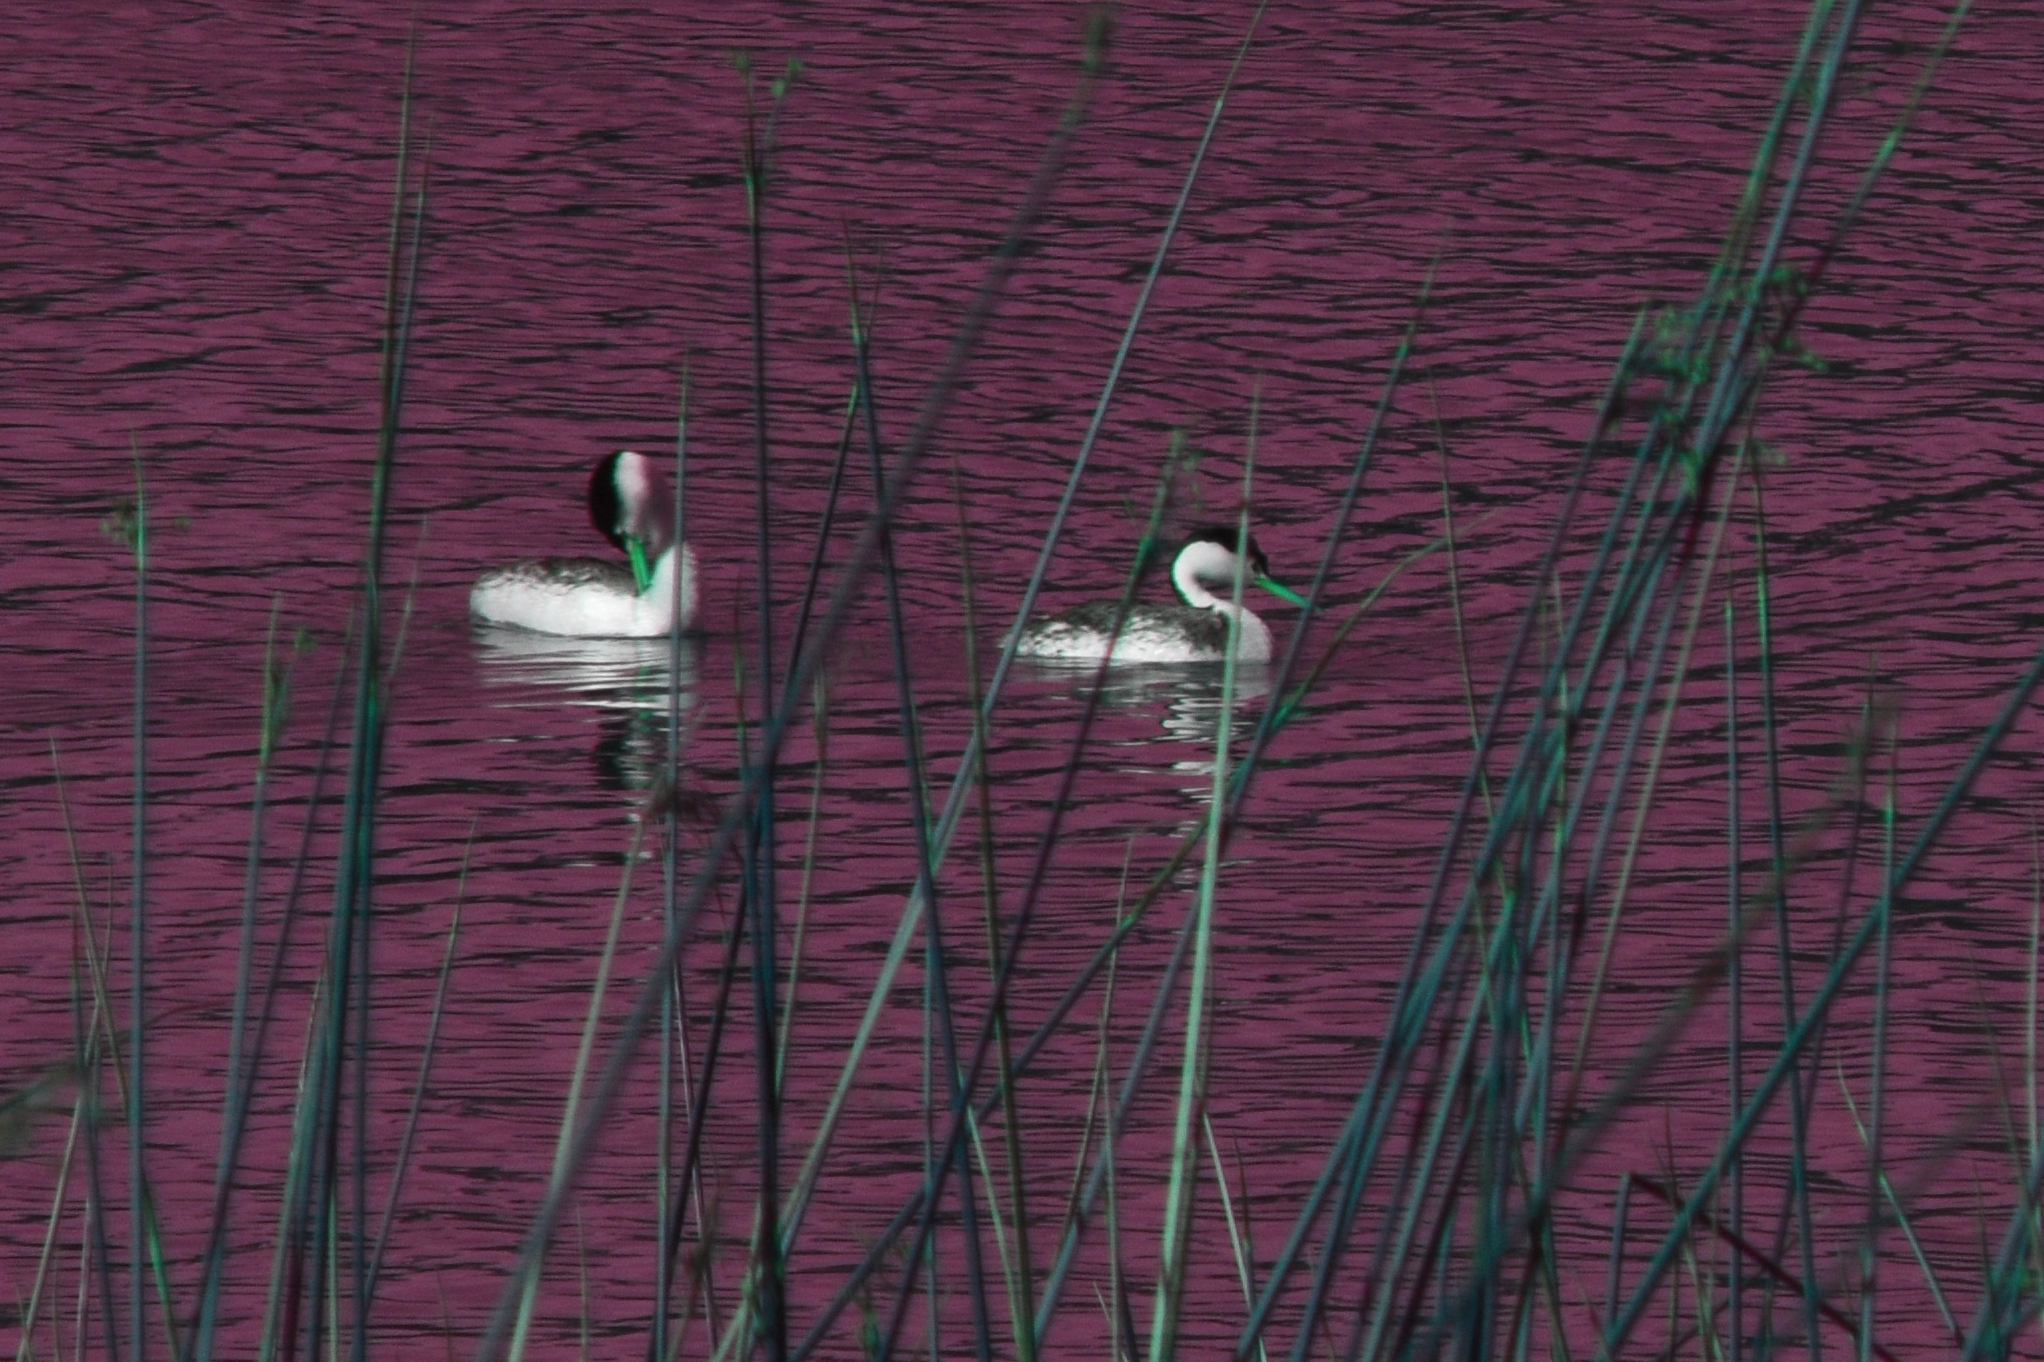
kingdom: Animalia
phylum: Chordata
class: Aves
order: Podicipediformes
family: Podicipedidae
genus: Aechmophorus
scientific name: Aechmophorus clarkii
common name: Clark's grebe
